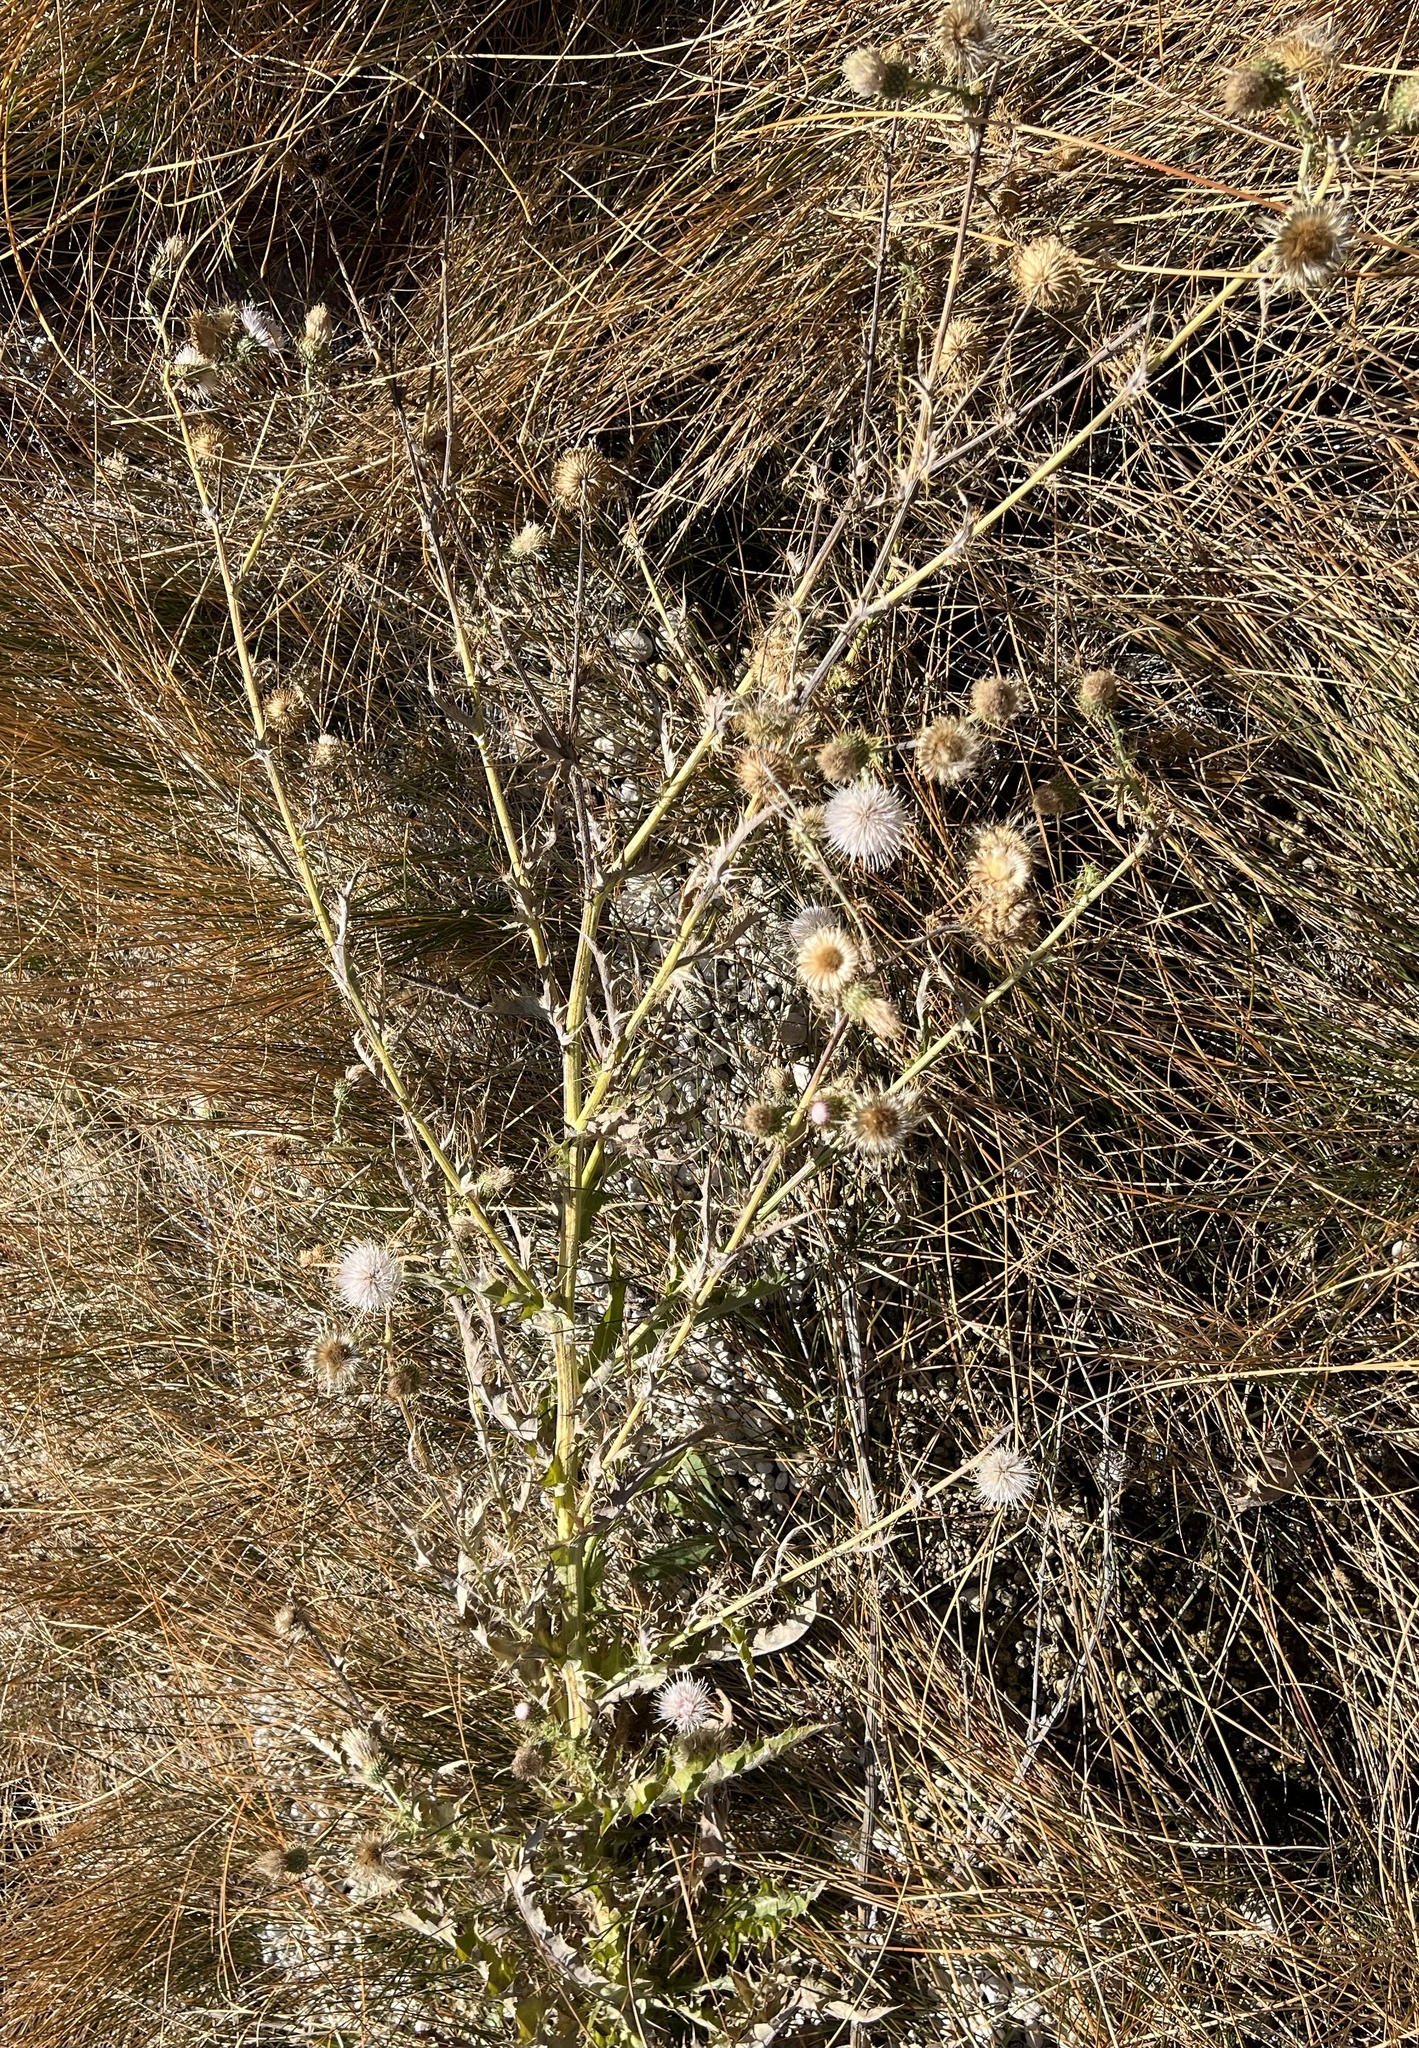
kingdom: Plantae
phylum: Tracheophyta
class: Magnoliopsida
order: Asterales
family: Asteraceae
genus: Cirsium
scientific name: Cirsium mohavense
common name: Mojave thistle
